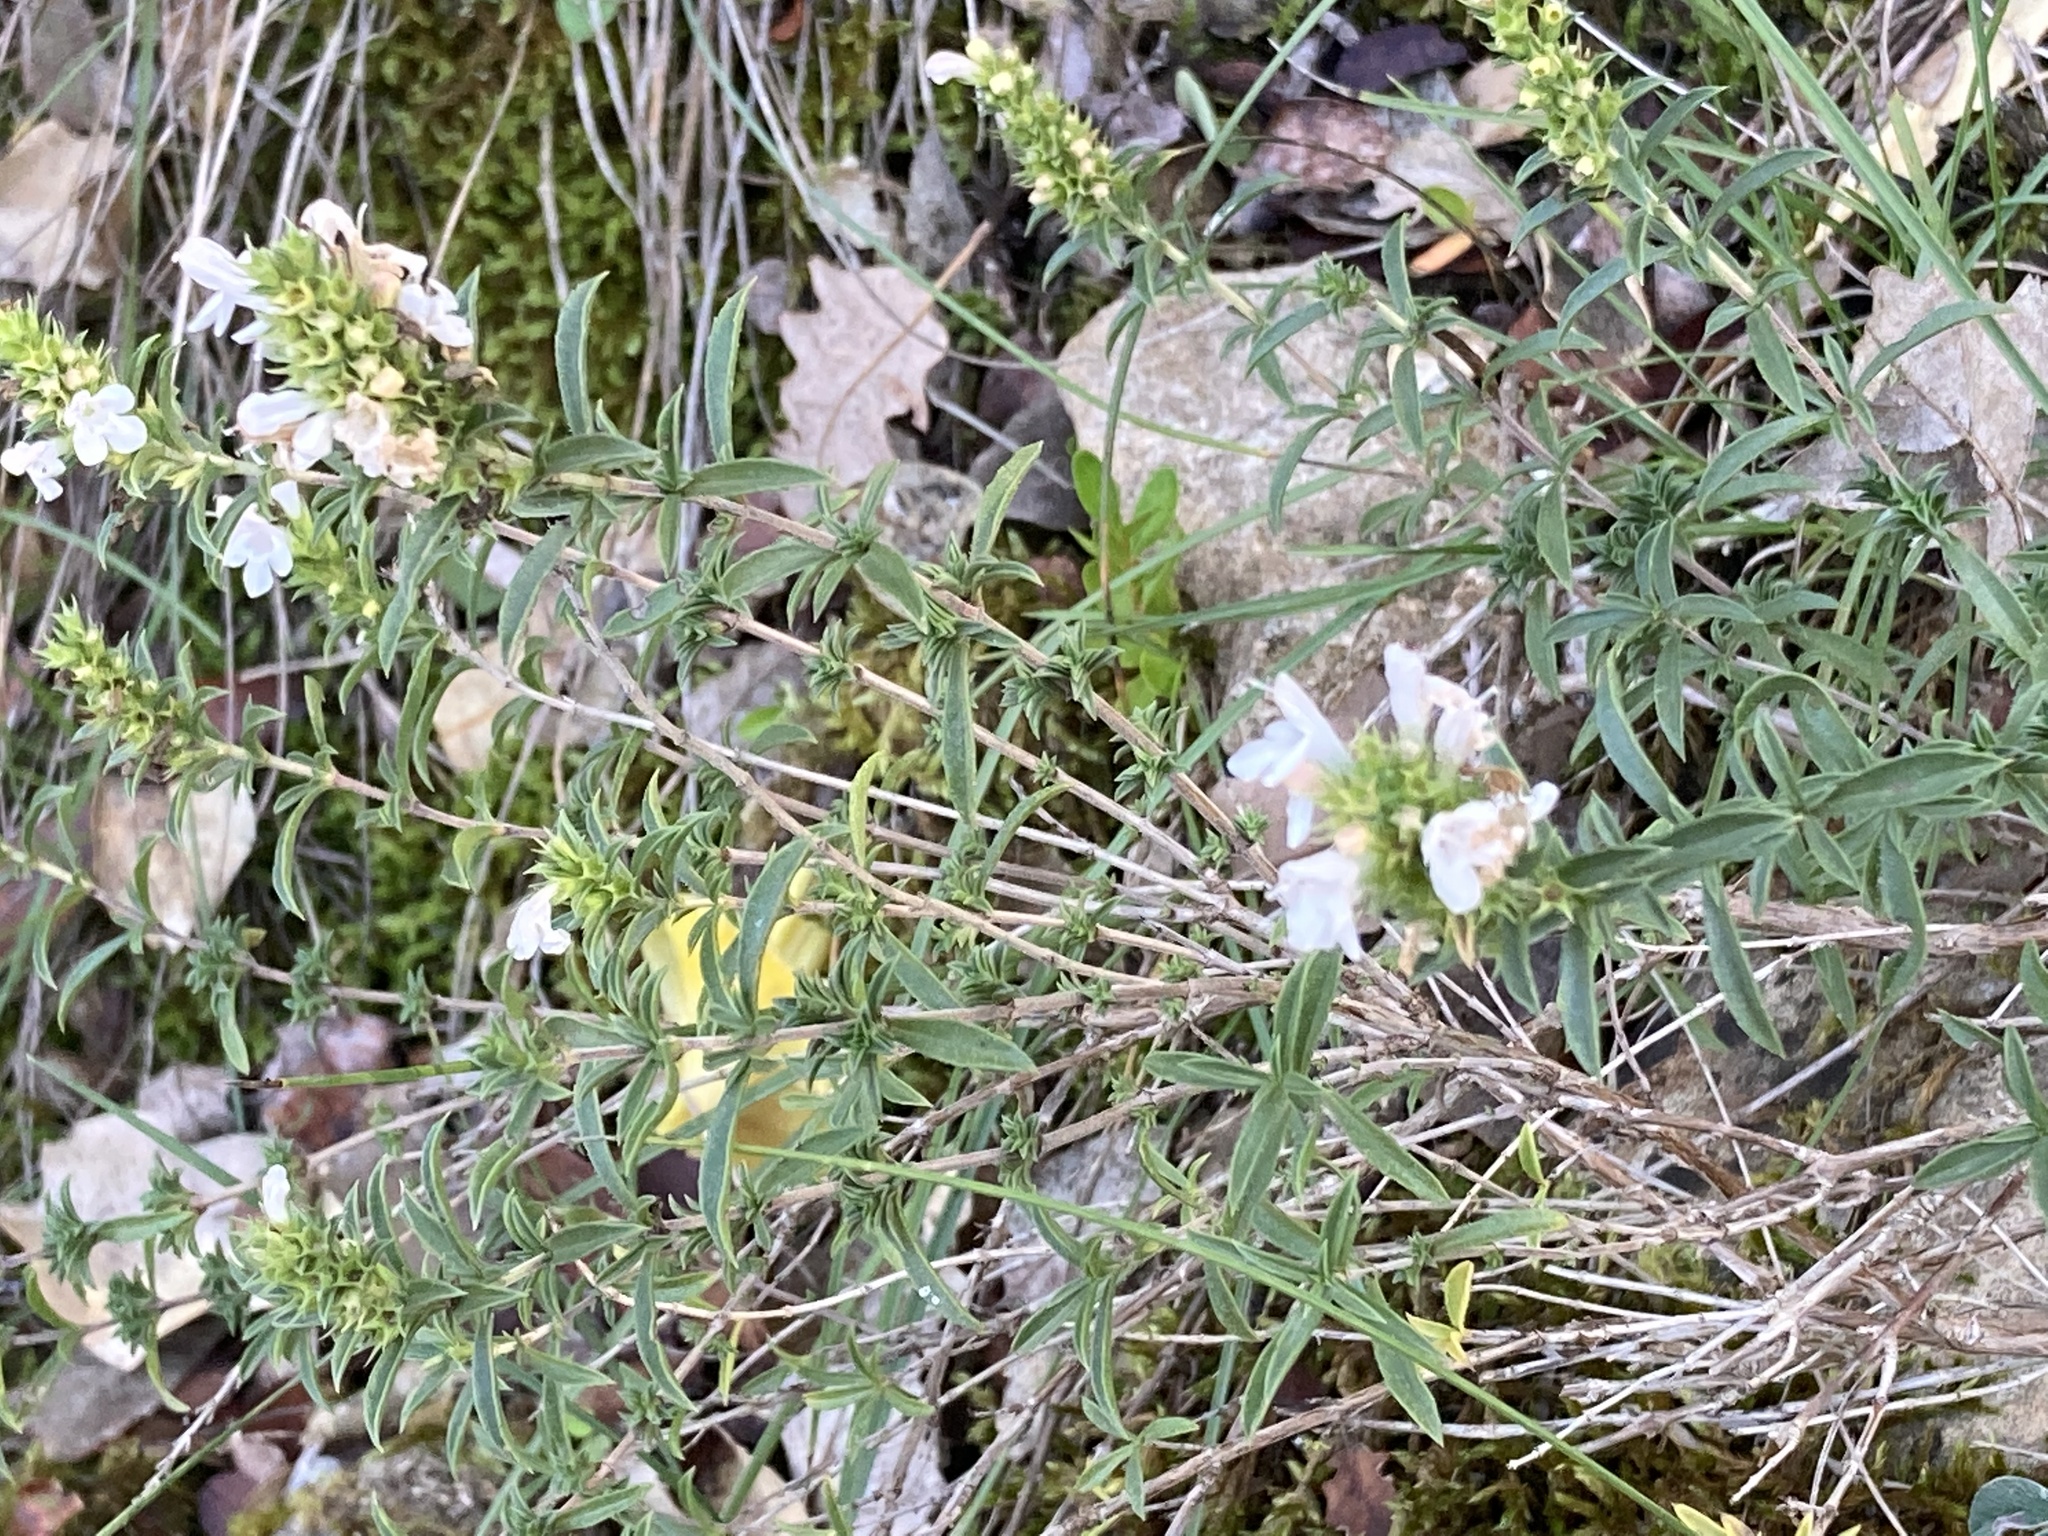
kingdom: Plantae
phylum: Tracheophyta
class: Magnoliopsida
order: Lamiales
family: Lamiaceae
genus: Satureja
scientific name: Satureja montana
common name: Winter savory
